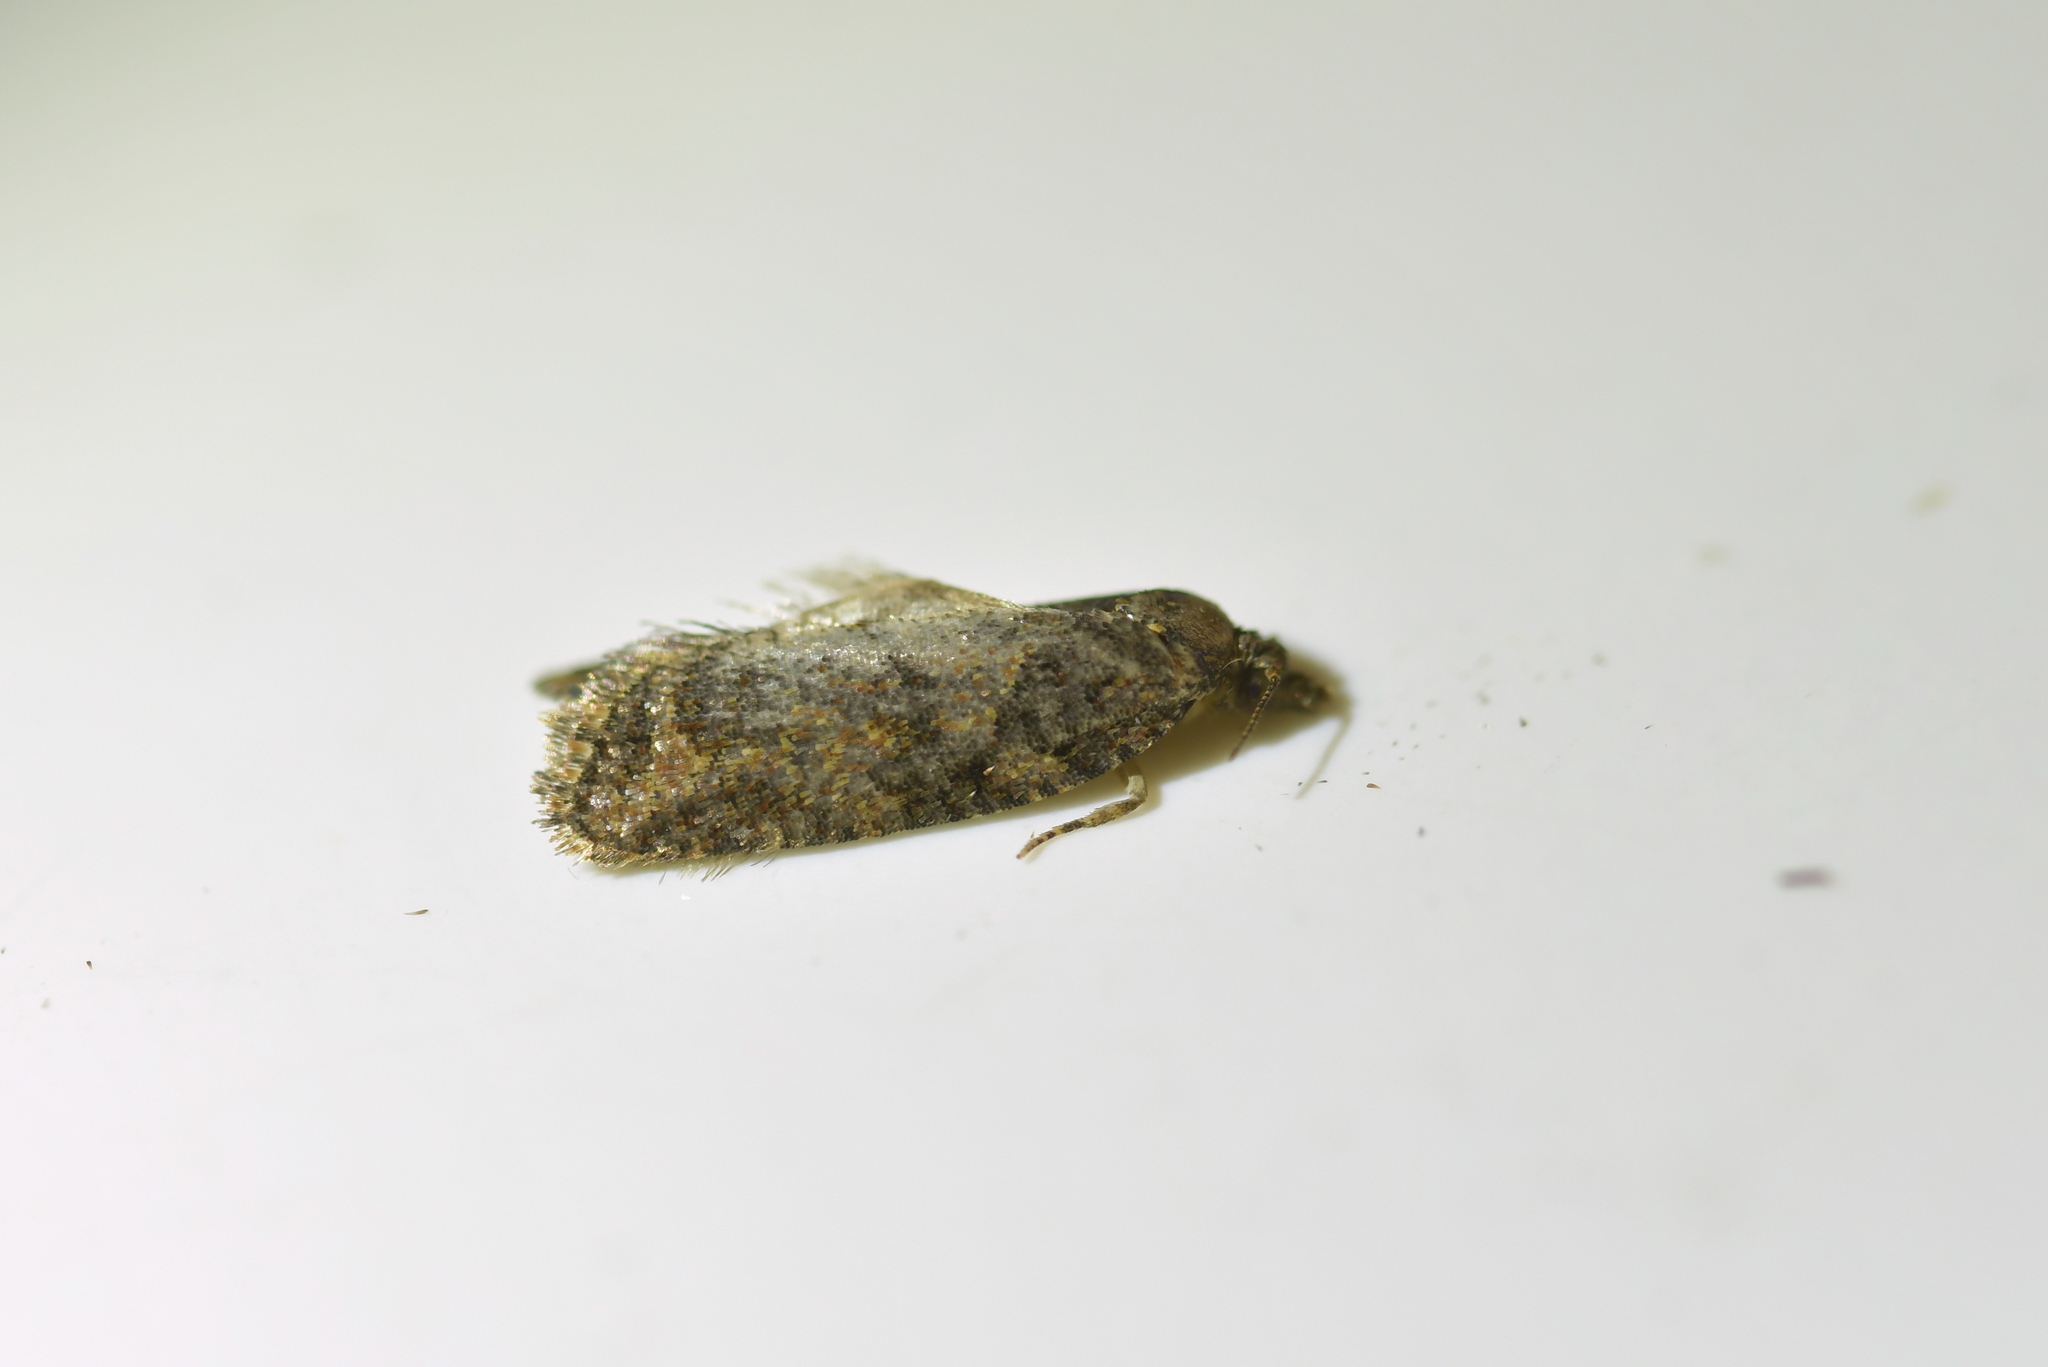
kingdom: Animalia
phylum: Arthropoda
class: Insecta
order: Lepidoptera
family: Tortricidae
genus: Capua
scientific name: Capua intractana
